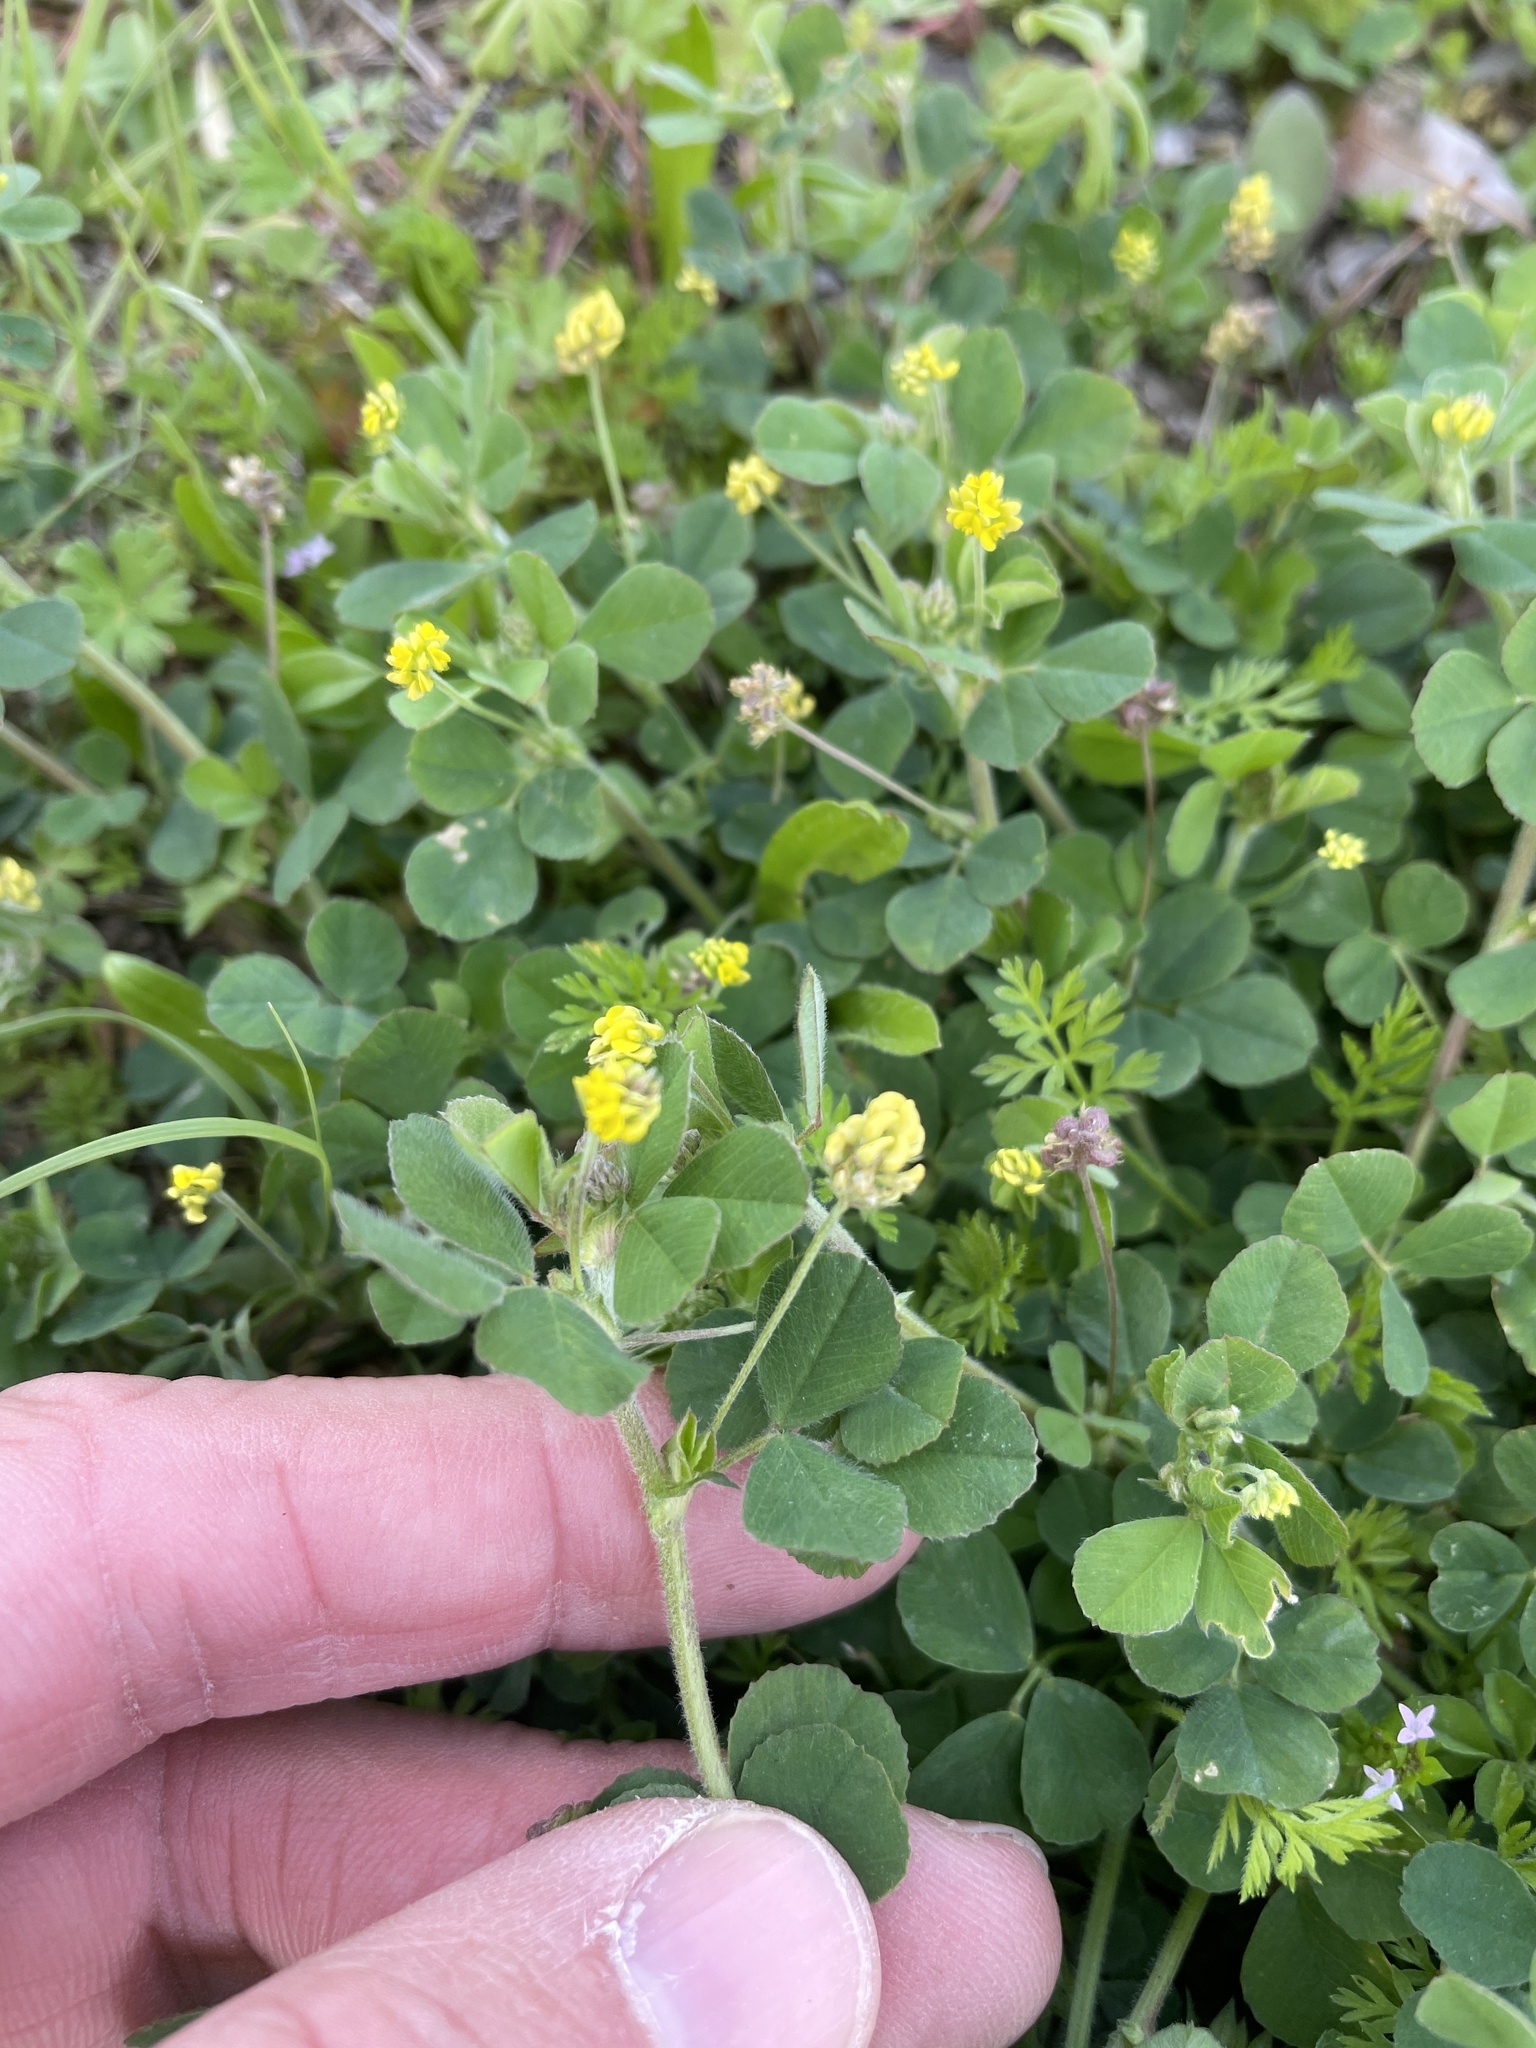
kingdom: Plantae
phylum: Tracheophyta
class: Magnoliopsida
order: Fabales
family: Fabaceae
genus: Medicago
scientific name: Medicago lupulina
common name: Black medick
